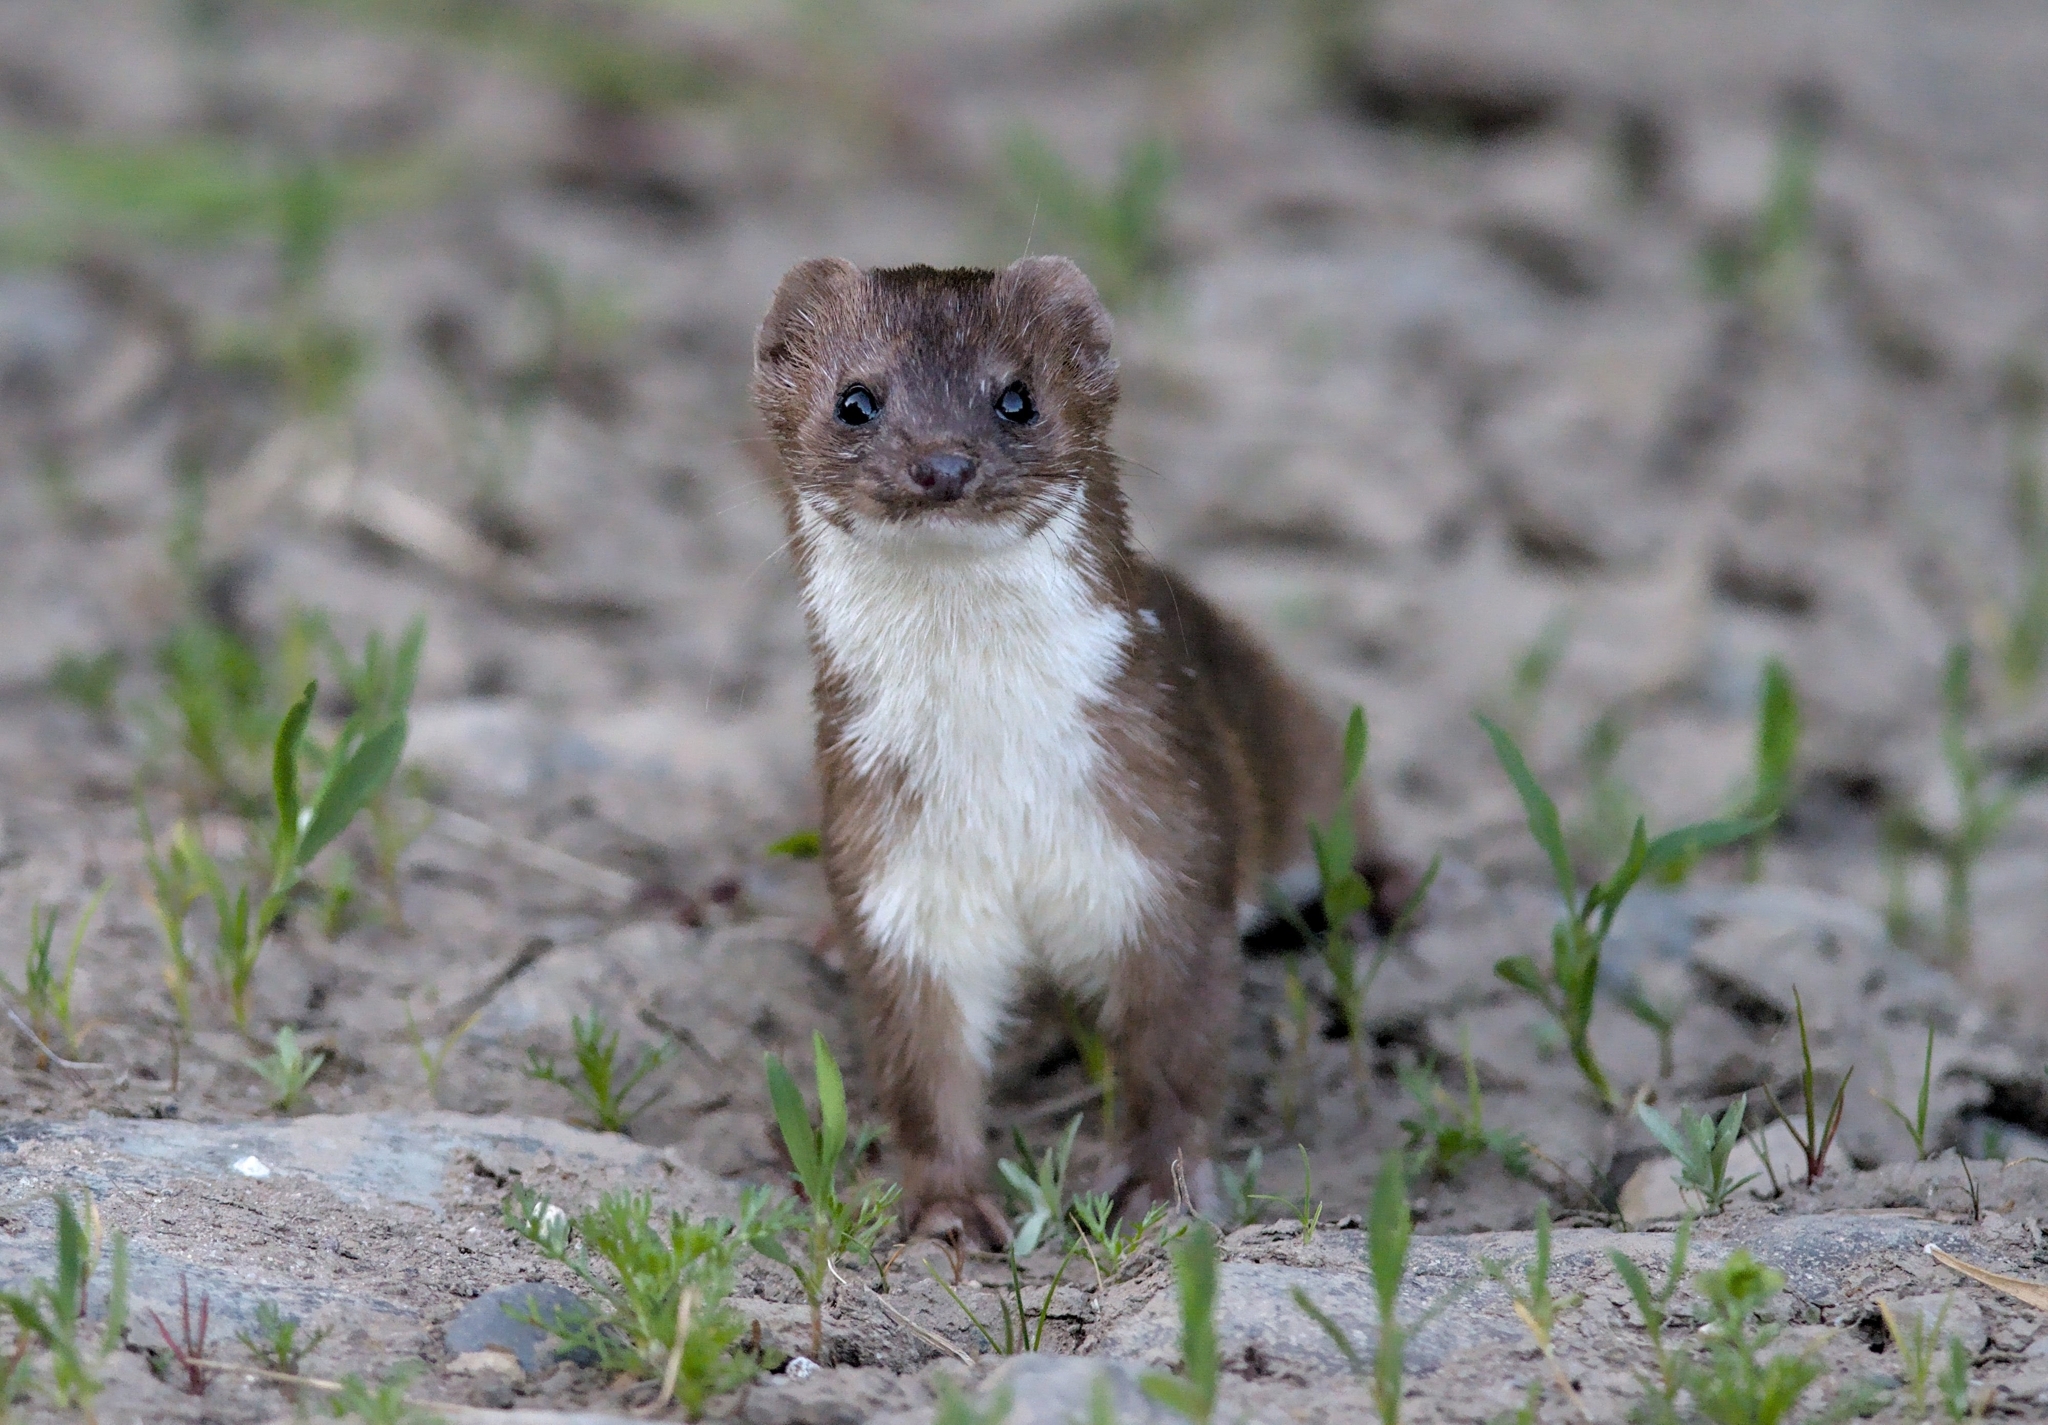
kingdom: Animalia
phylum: Chordata
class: Mammalia
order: Carnivora
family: Mustelidae
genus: Mustela
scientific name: Mustela nivalis
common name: Least weasel
